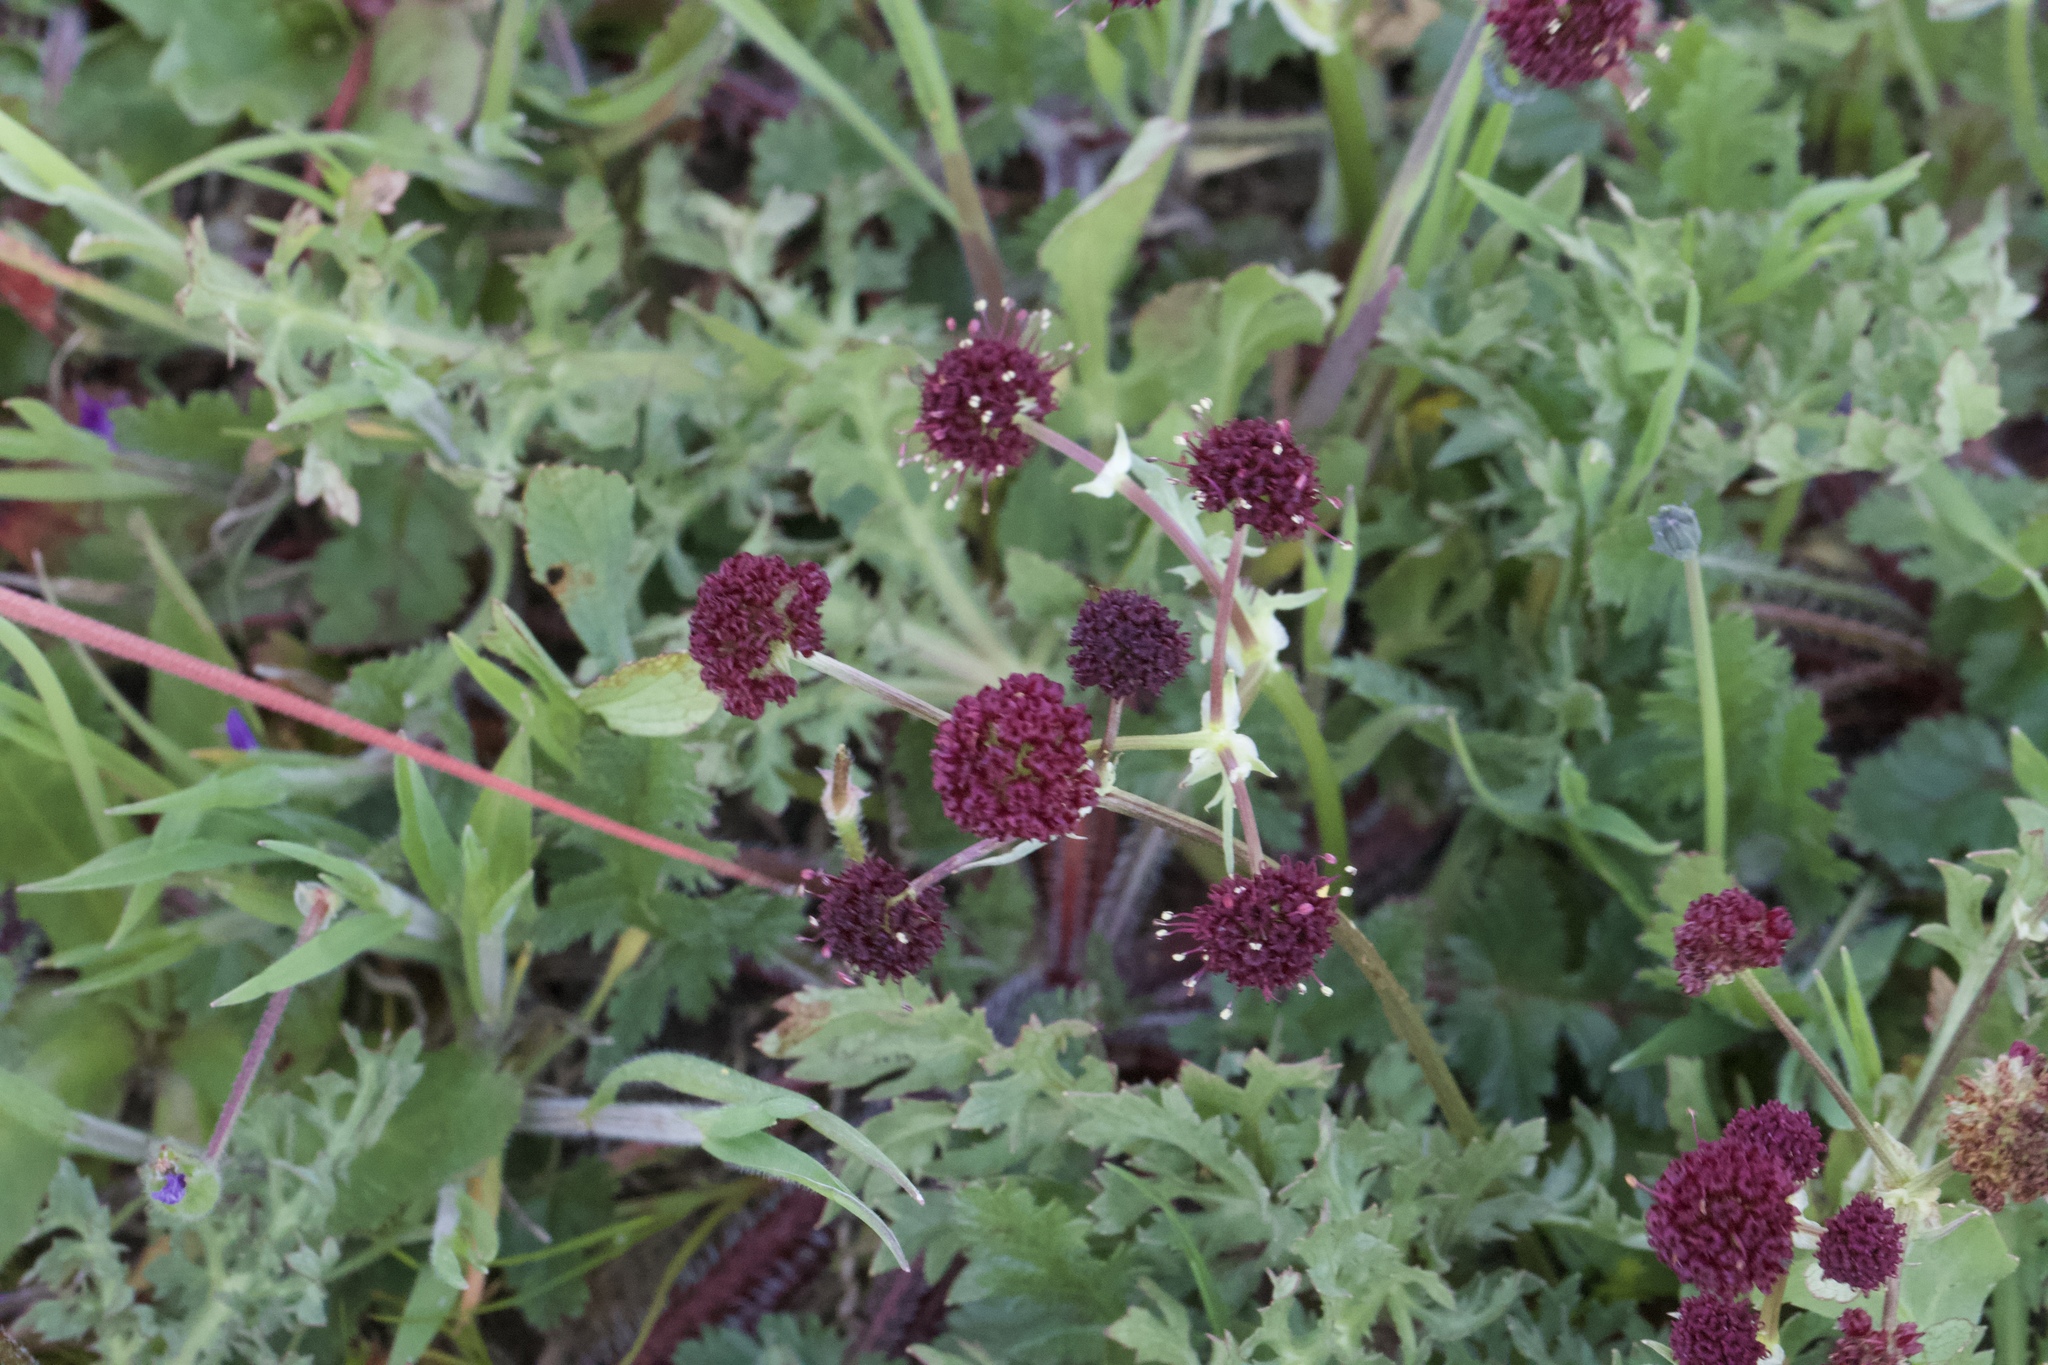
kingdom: Plantae
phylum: Tracheophyta
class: Magnoliopsida
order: Apiales
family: Apiaceae
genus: Sanicula
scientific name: Sanicula bipinnatifida
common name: Shoe-buttons
